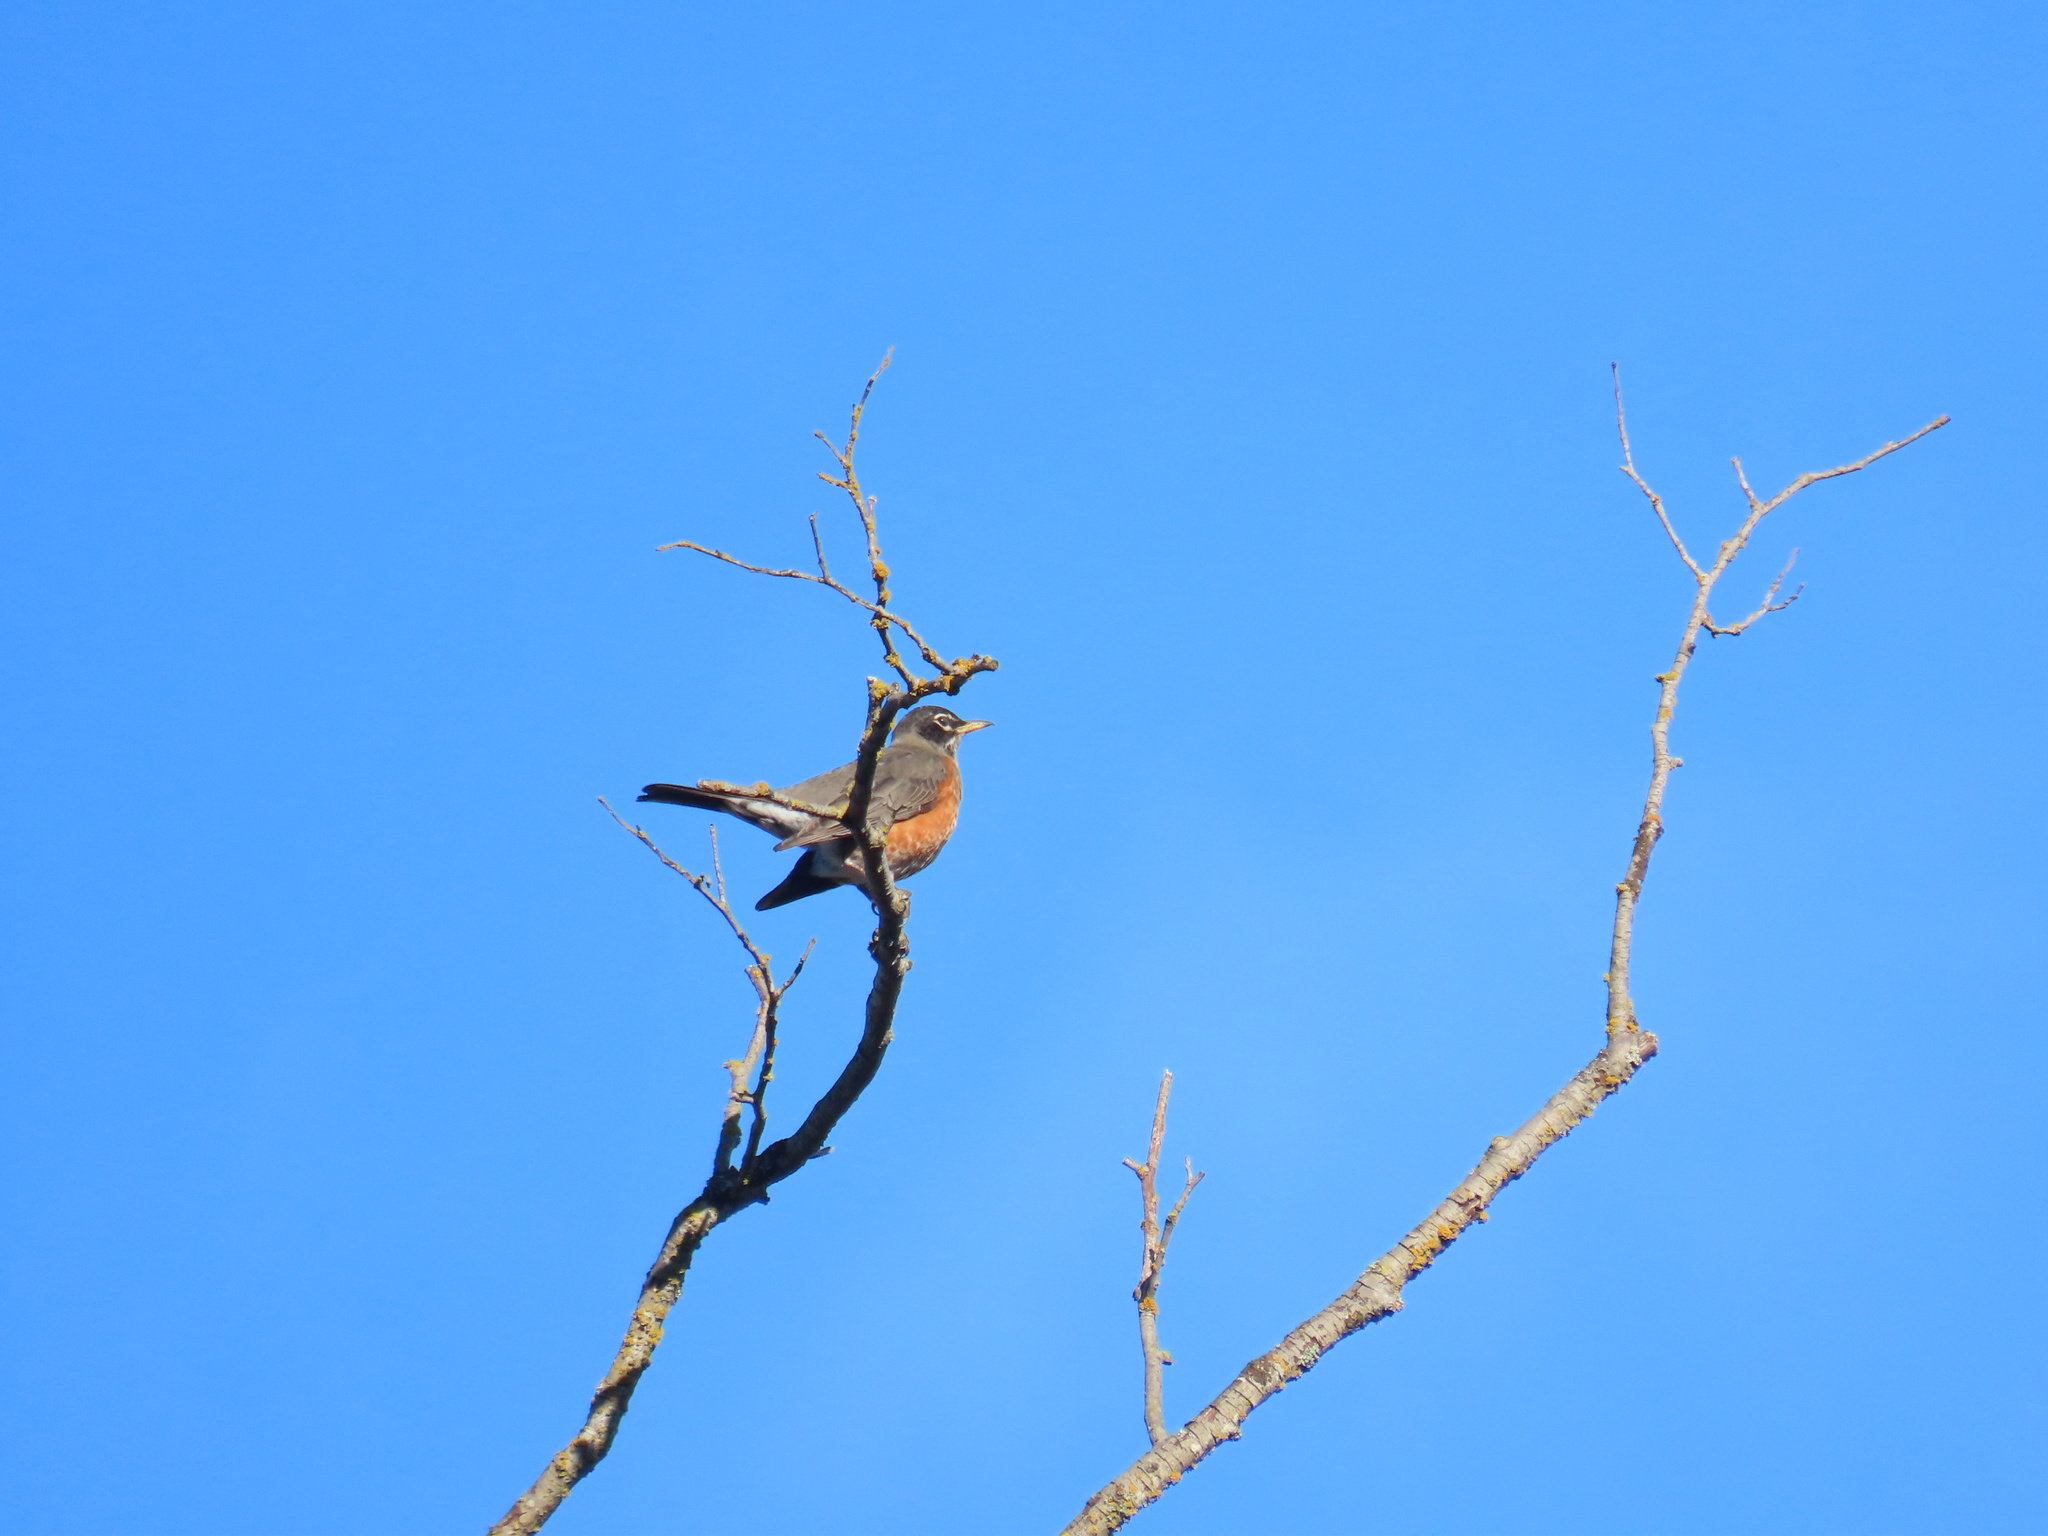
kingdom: Animalia
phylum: Chordata
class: Aves
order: Passeriformes
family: Turdidae
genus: Turdus
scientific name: Turdus migratorius
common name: American robin
